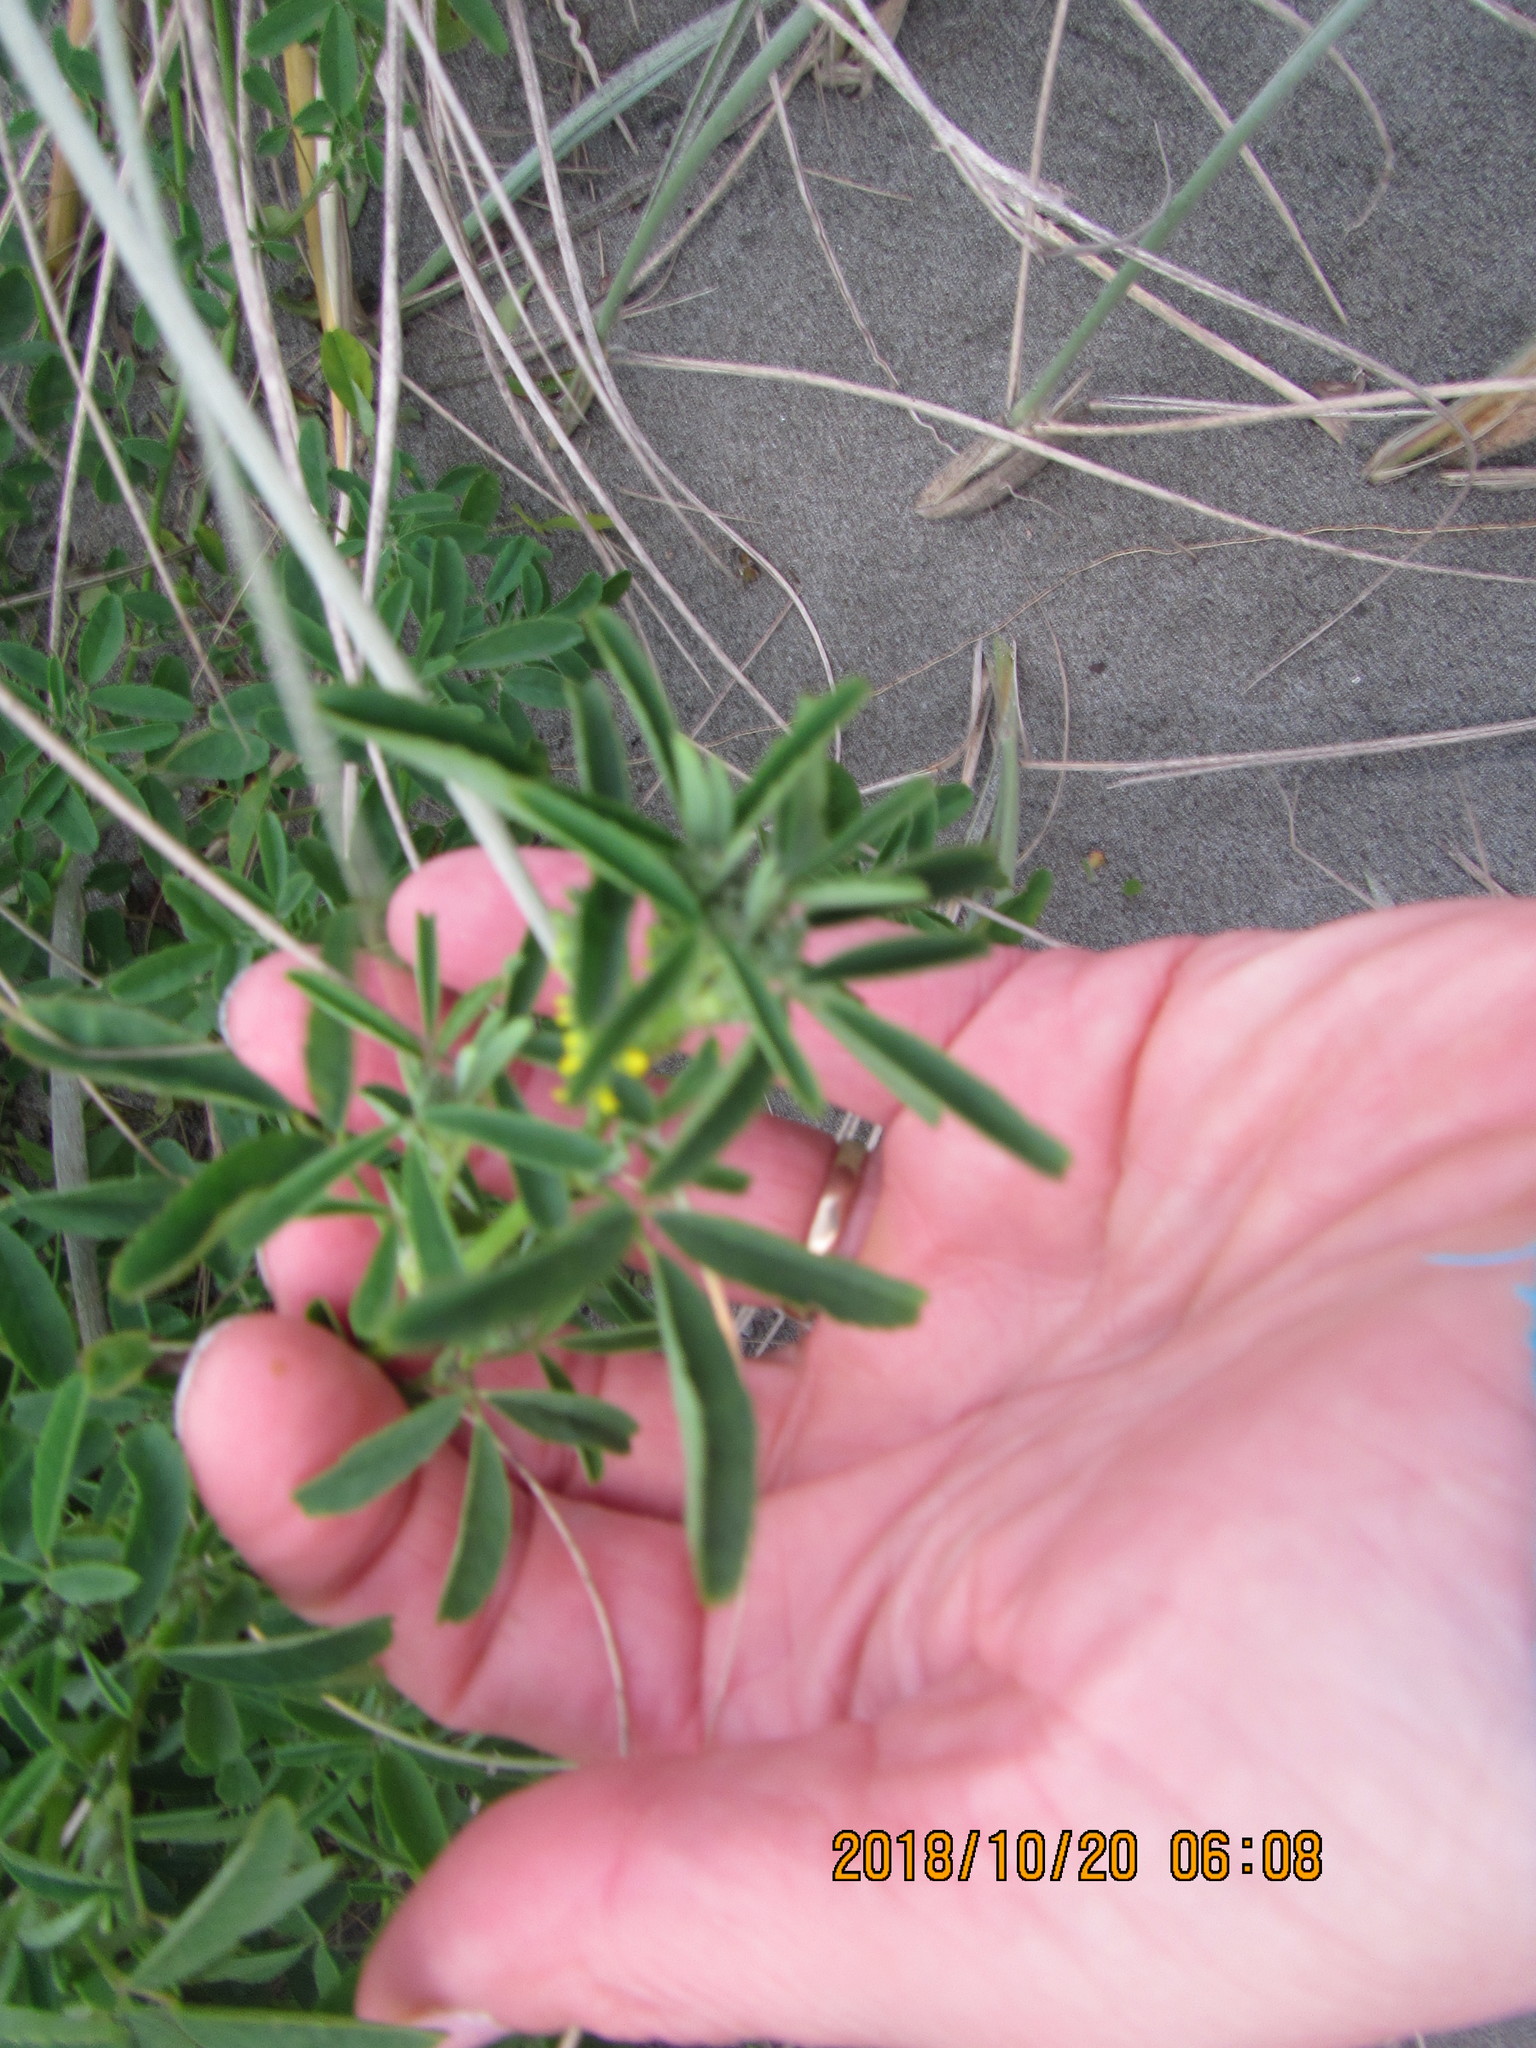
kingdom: Plantae
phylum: Tracheophyta
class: Magnoliopsida
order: Fabales
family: Fabaceae
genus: Melilotus
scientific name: Melilotus indicus
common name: Small melilot
